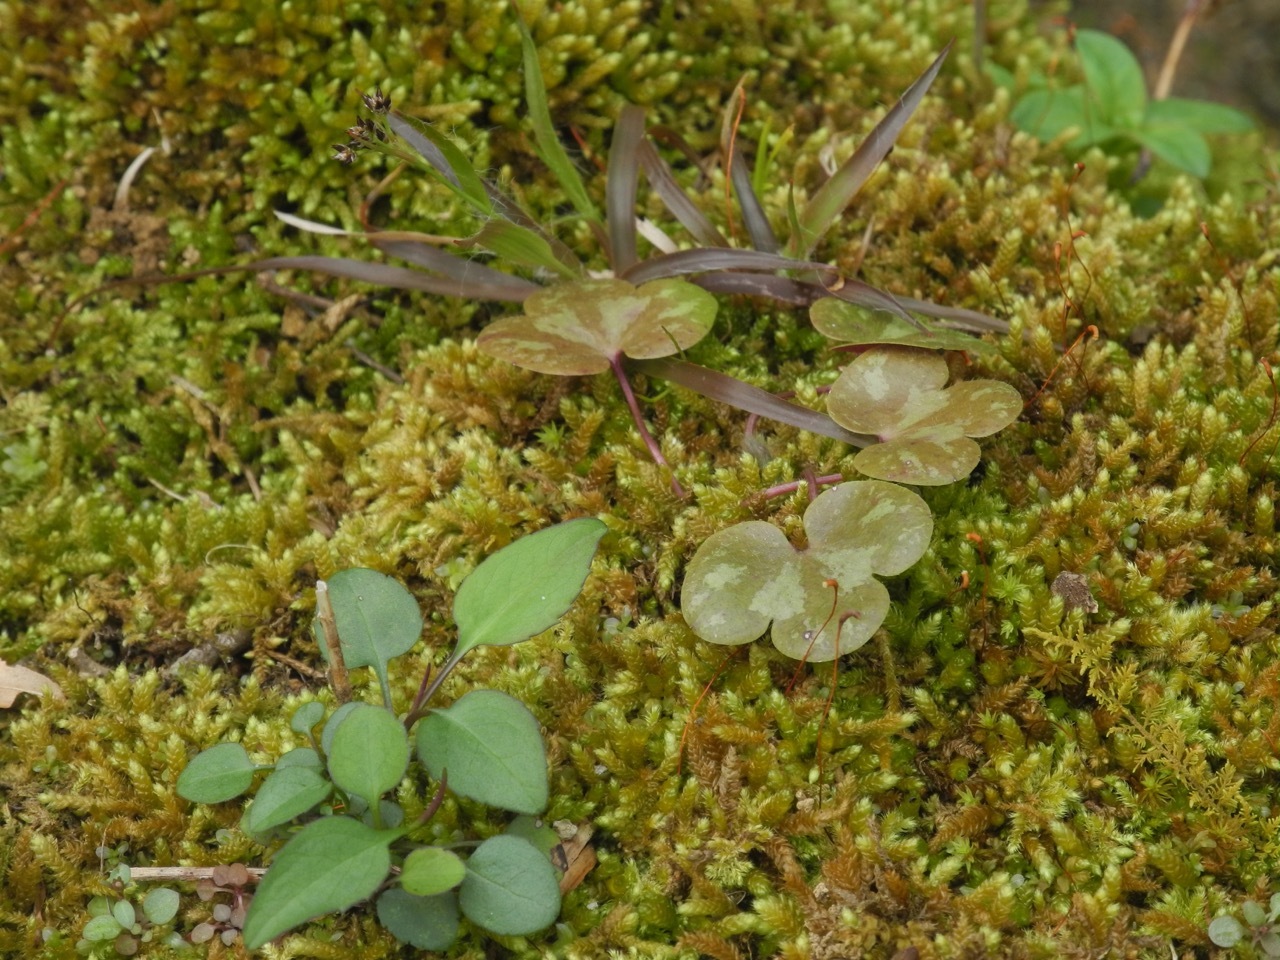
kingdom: Plantae
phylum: Tracheophyta
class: Liliopsida
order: Poales
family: Juncaceae
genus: Luzula
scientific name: Luzula echinata
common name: Hedgehog woodrush
